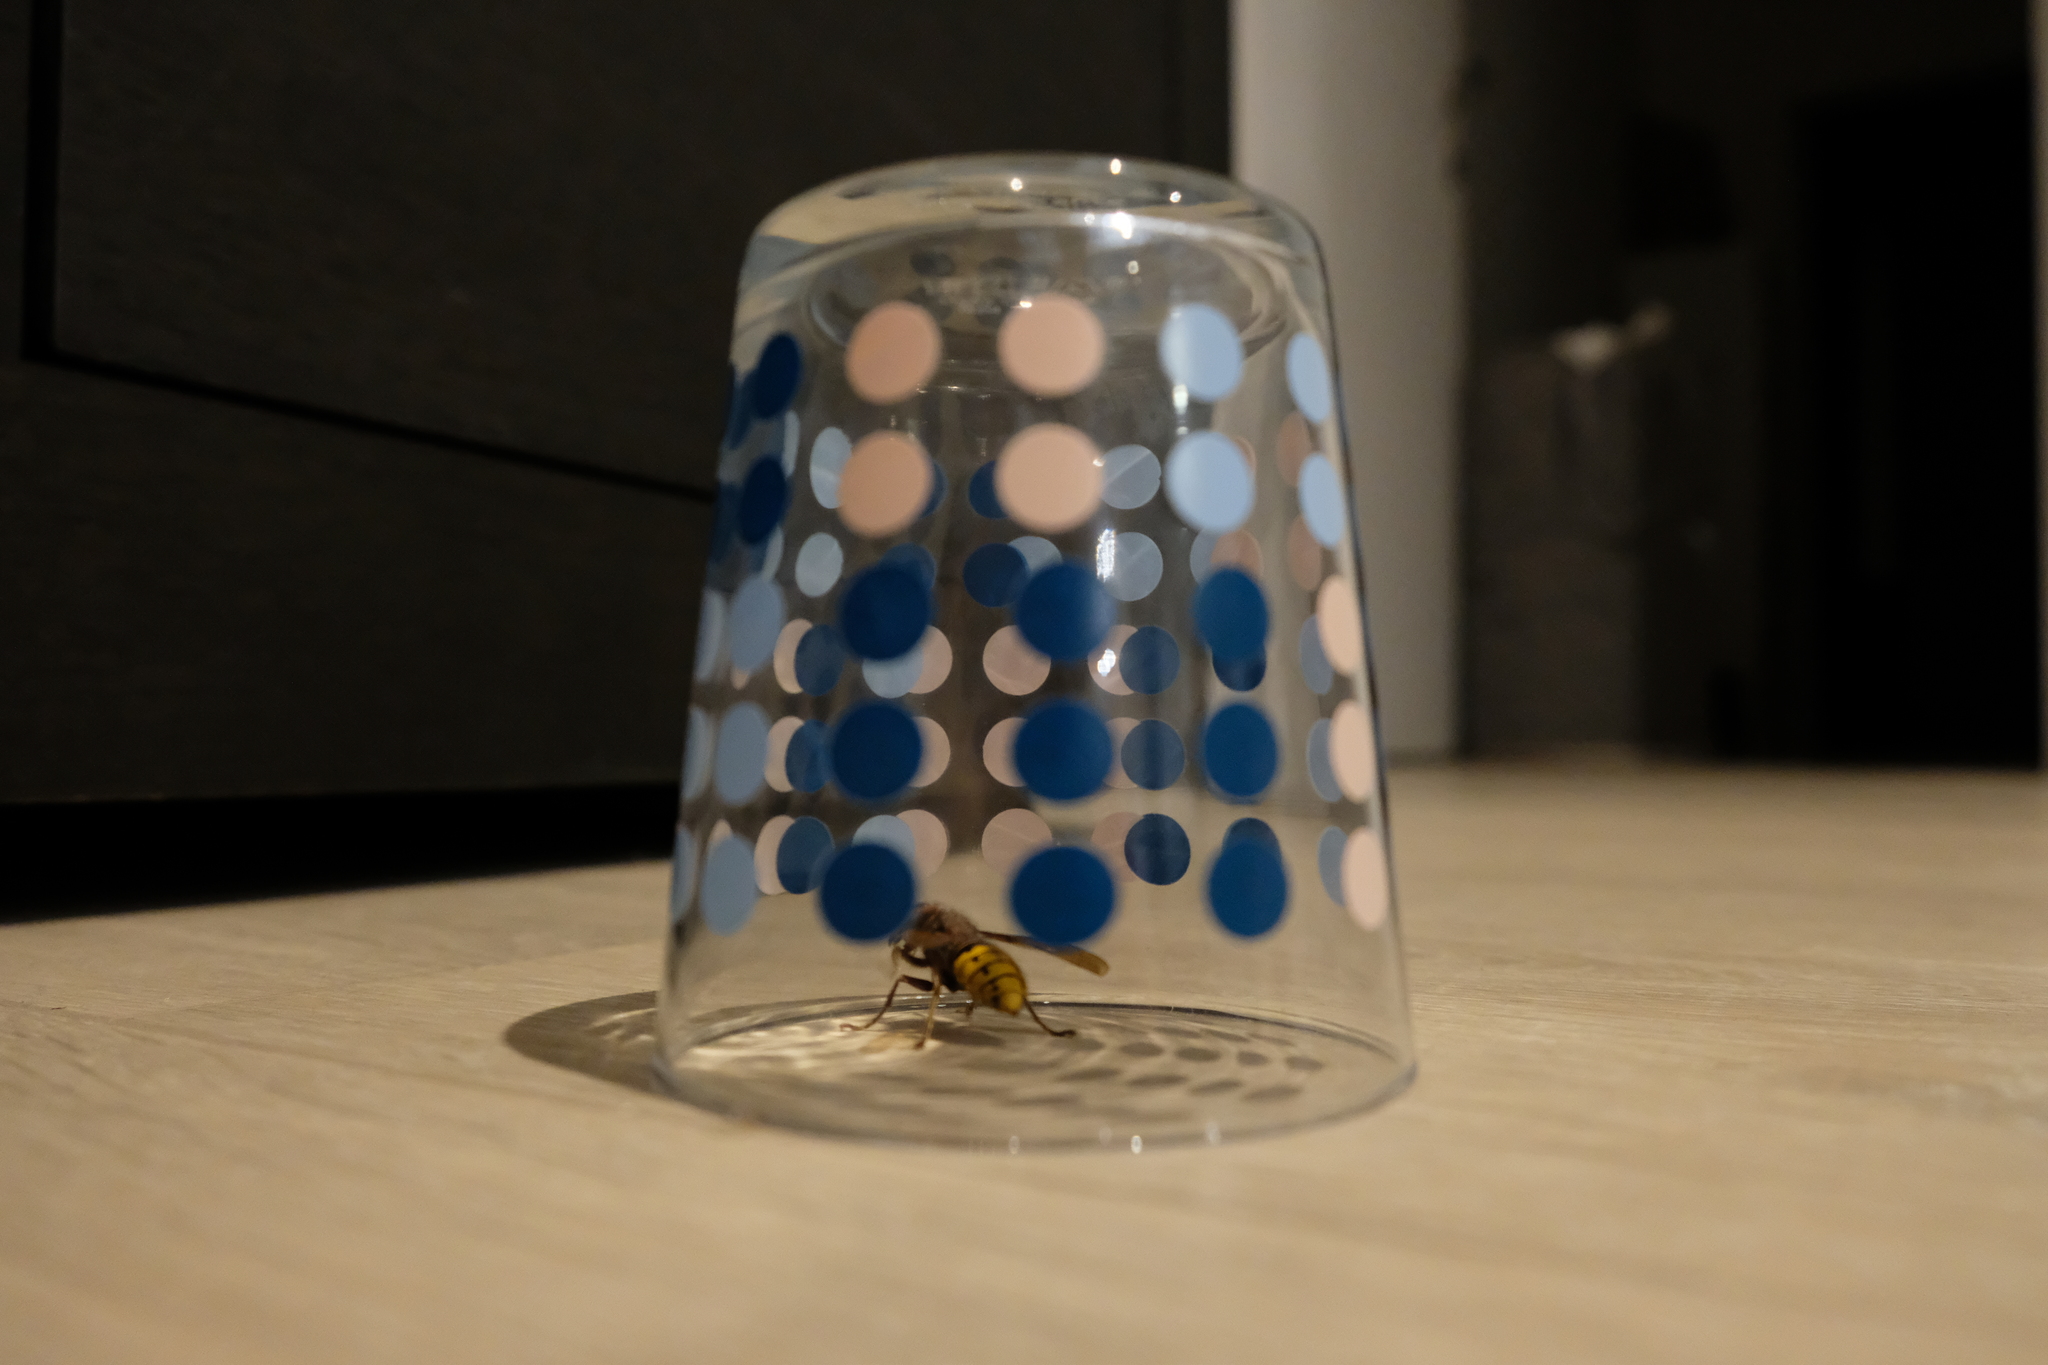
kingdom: Animalia
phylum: Arthropoda
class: Insecta
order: Hymenoptera
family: Vespidae
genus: Vespa
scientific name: Vespa crabro
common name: Hornet
